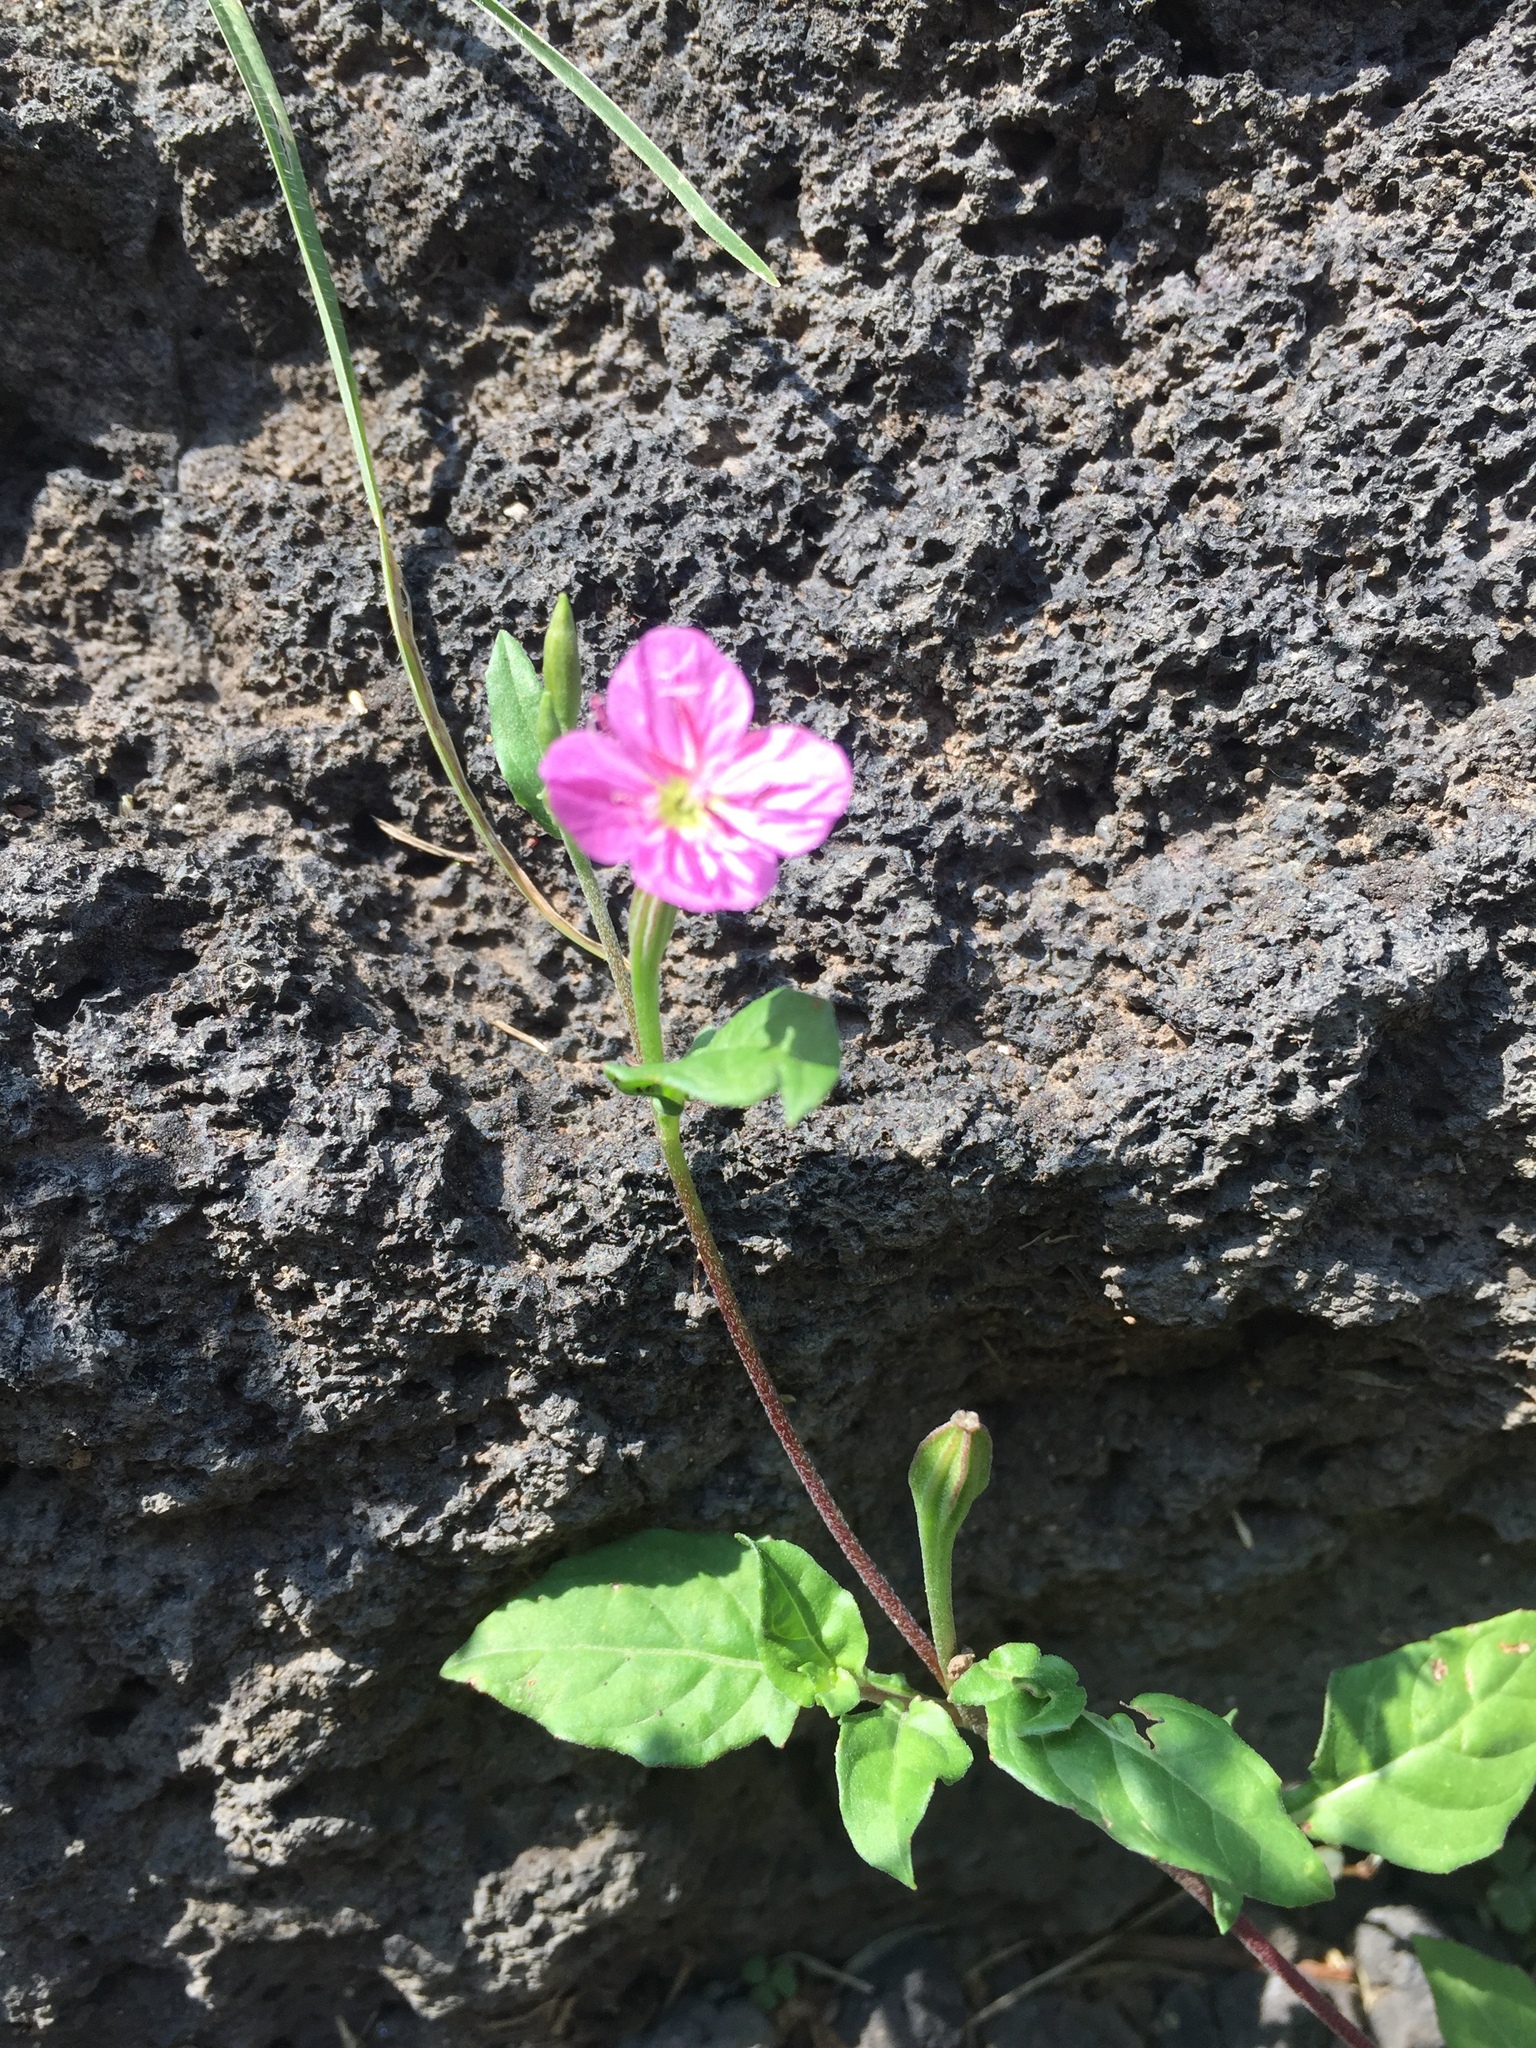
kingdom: Plantae
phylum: Tracheophyta
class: Magnoliopsida
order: Myrtales
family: Onagraceae
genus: Oenothera
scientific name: Oenothera rosea
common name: Rosy evening-primrose
